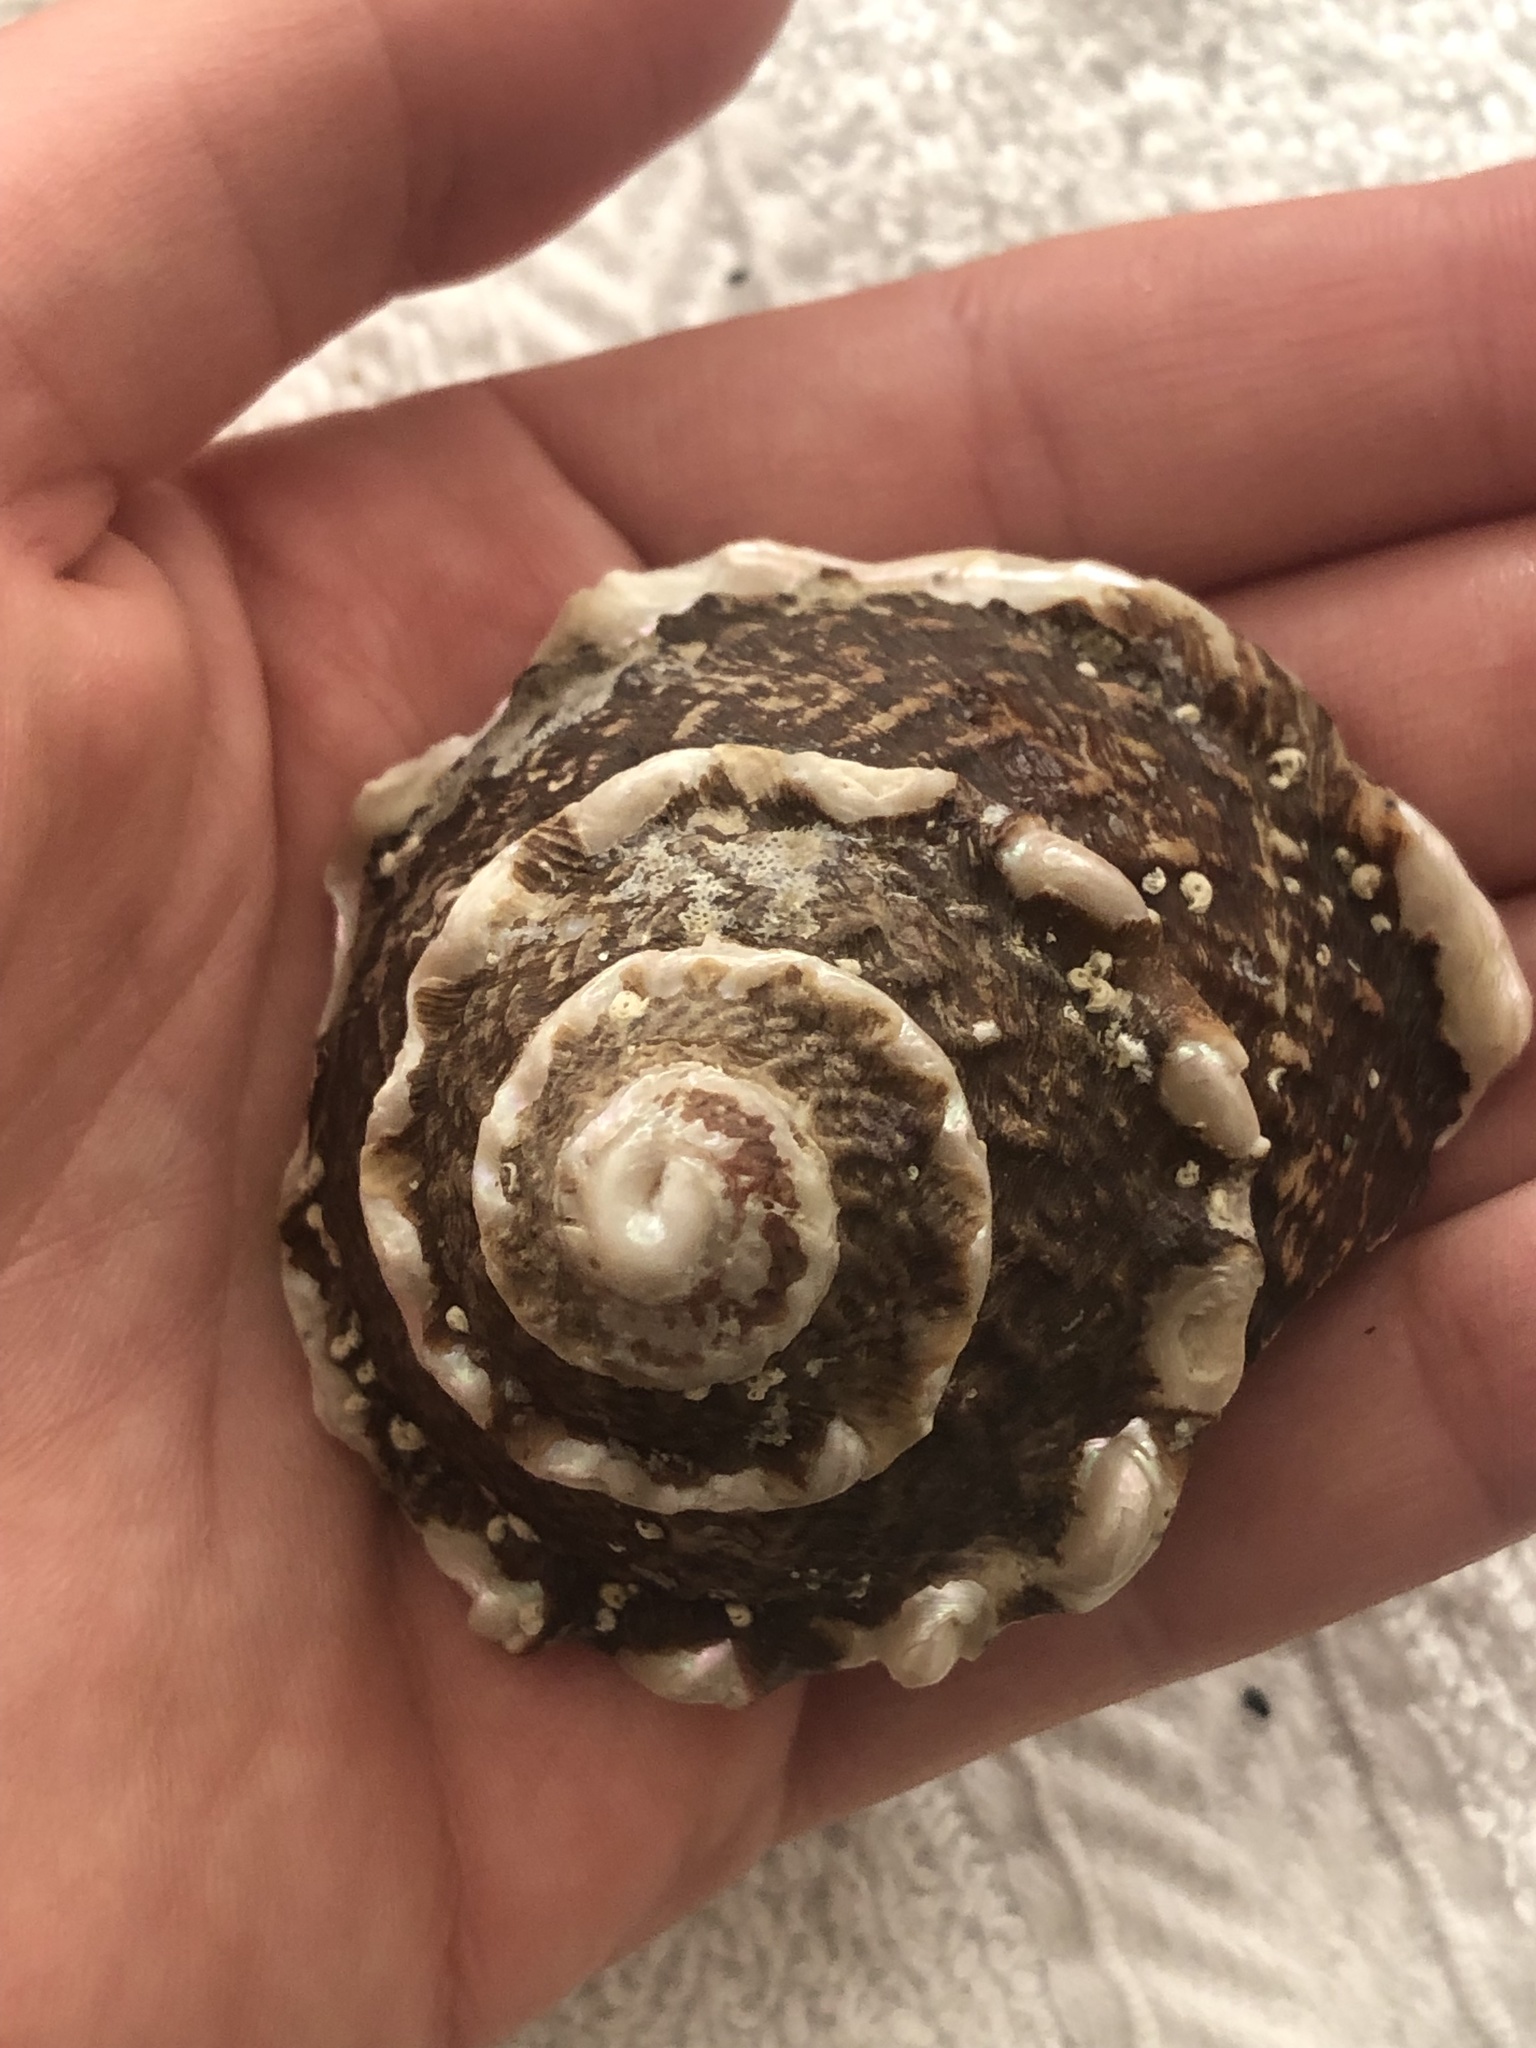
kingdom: Animalia
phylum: Mollusca
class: Gastropoda
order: Trochida
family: Turbinidae
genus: Megastraea
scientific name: Megastraea undosa
